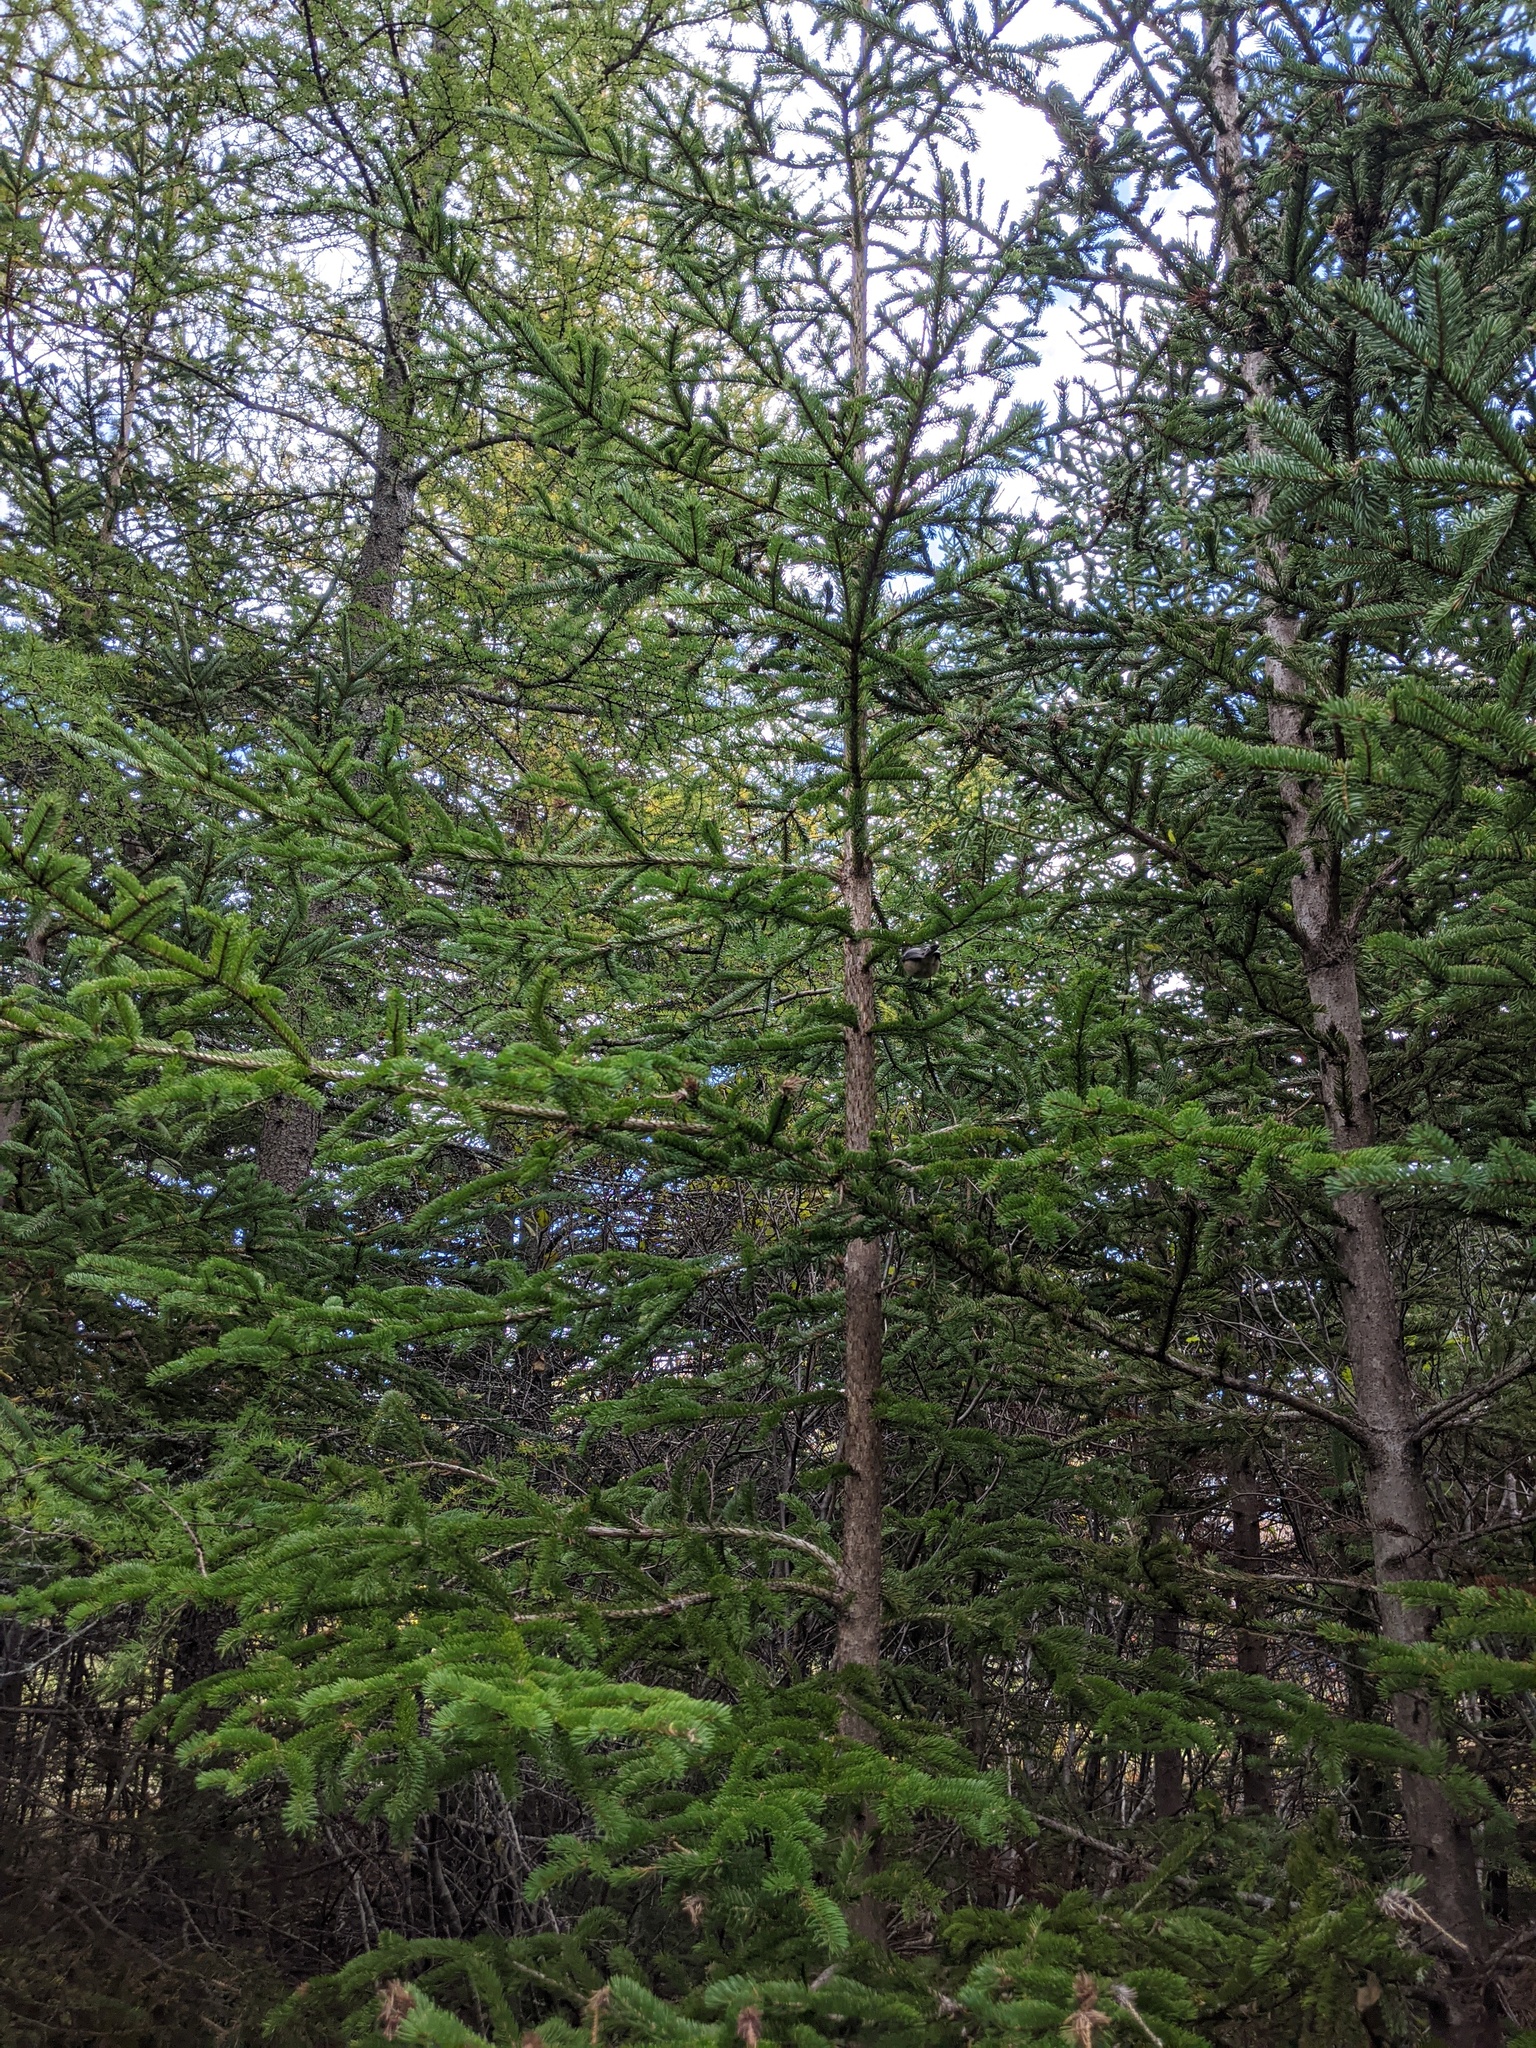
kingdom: Animalia
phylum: Chordata
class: Aves
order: Passeriformes
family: Paridae
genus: Poecile
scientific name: Poecile atricapillus
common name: Black-capped chickadee
